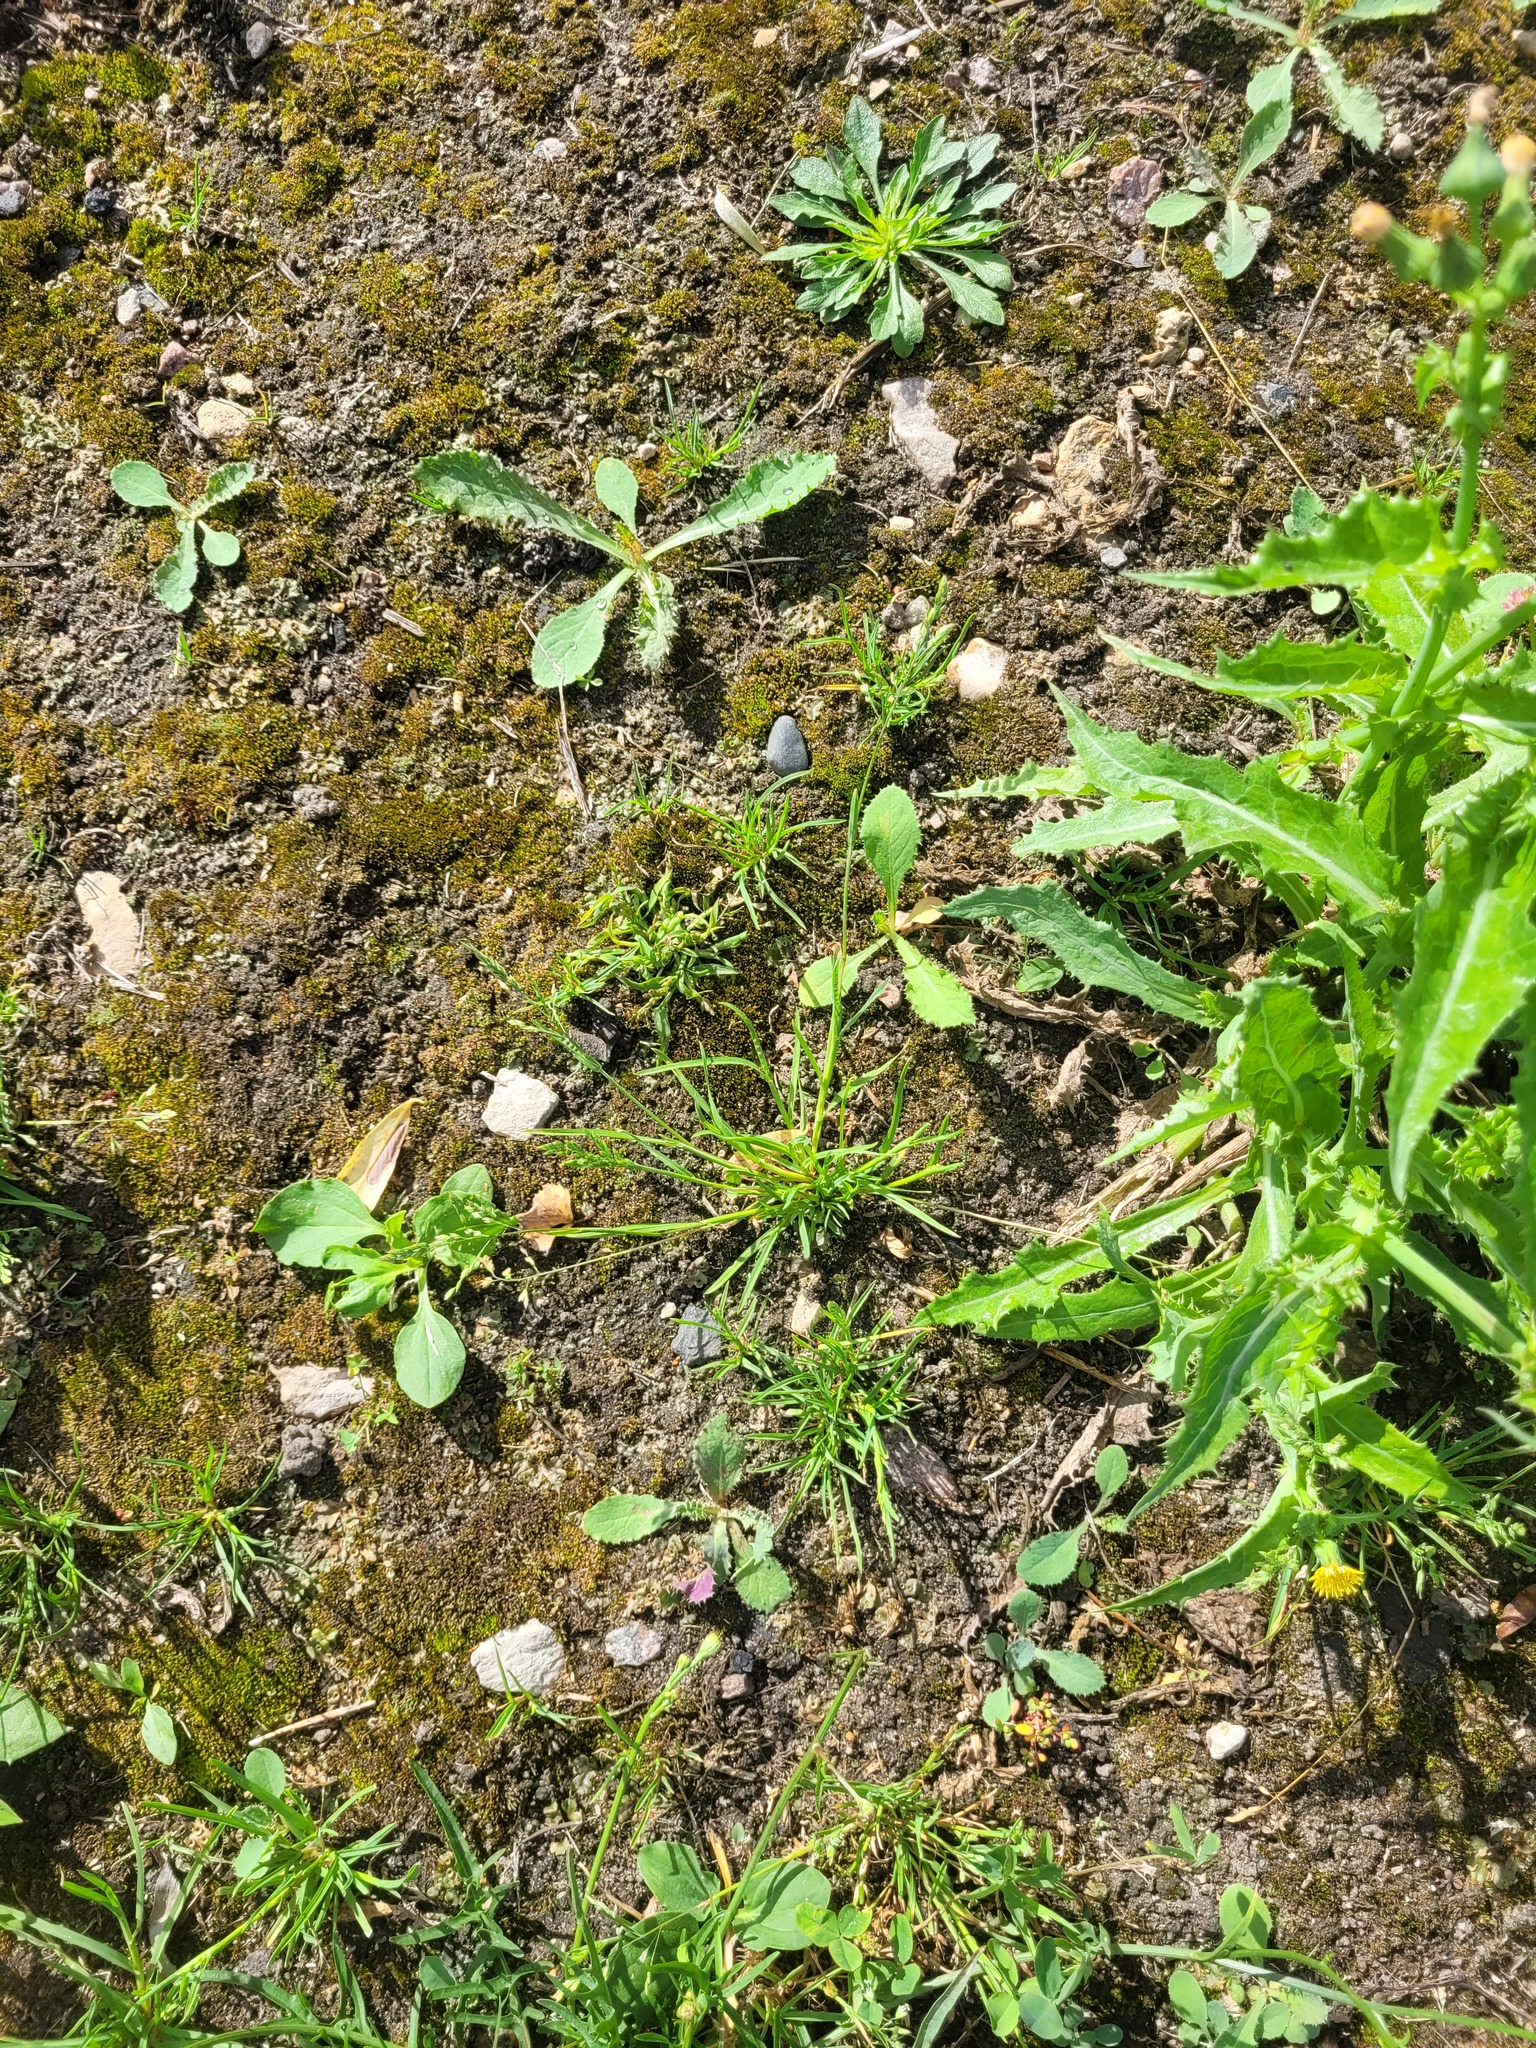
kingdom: Plantae
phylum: Tracheophyta
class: Liliopsida
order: Poales
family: Poaceae
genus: Poa
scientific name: Poa annua
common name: Annual bluegrass
